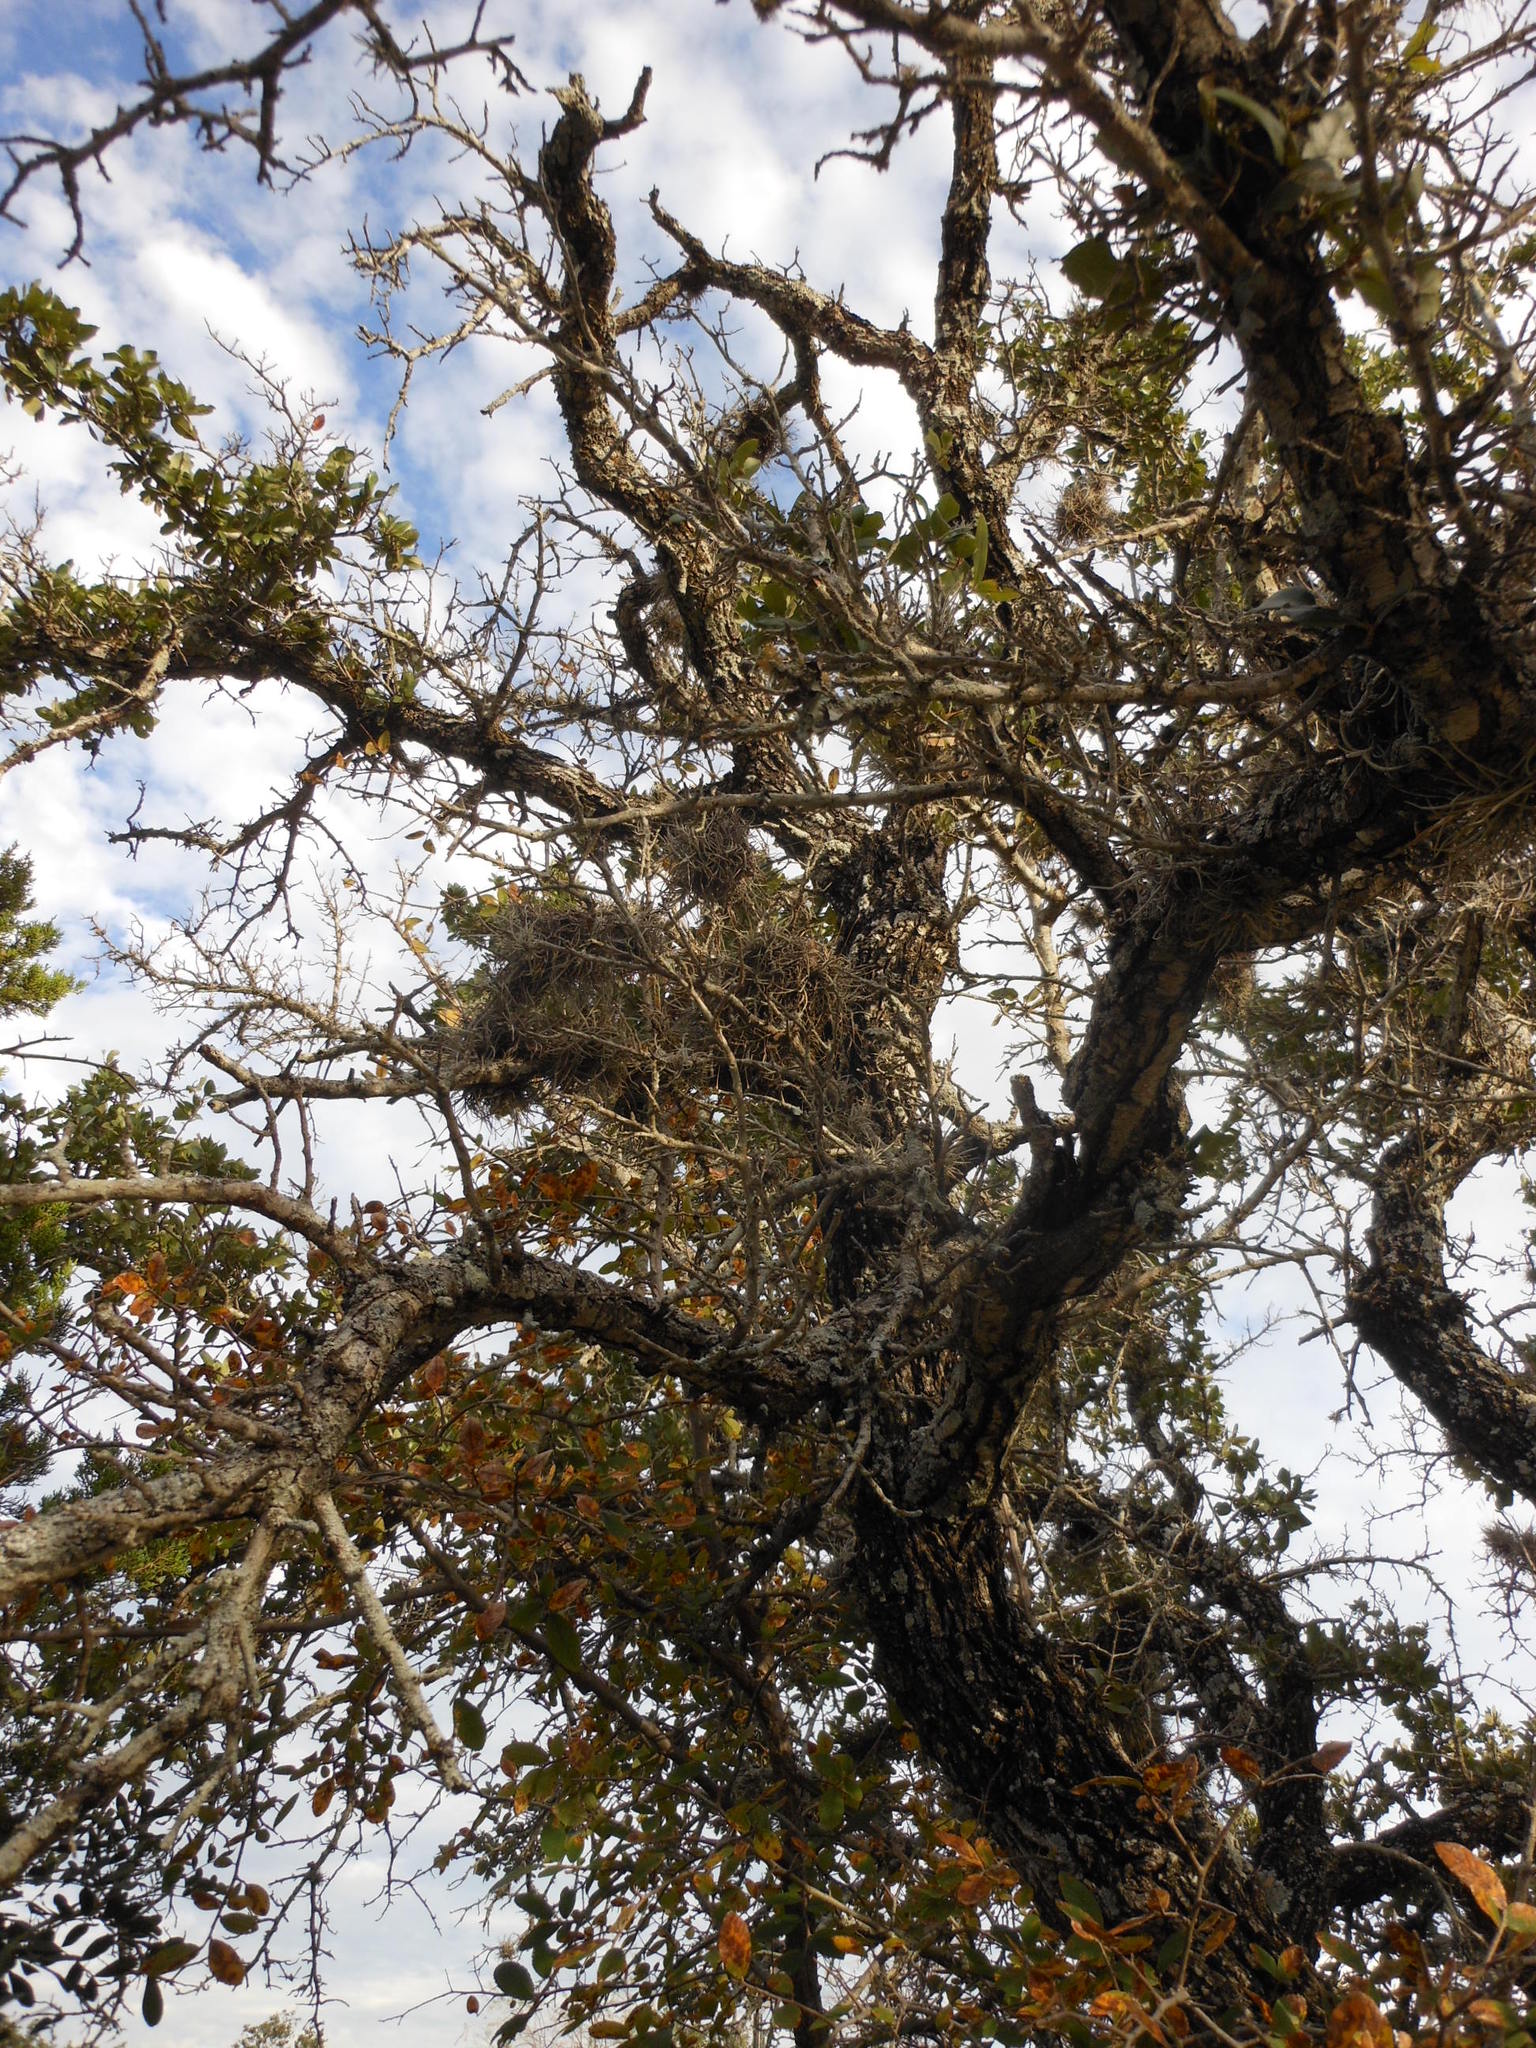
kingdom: Plantae
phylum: Tracheophyta
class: Liliopsida
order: Poales
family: Bromeliaceae
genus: Tillandsia
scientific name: Tillandsia recurvata
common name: Small ballmoss
